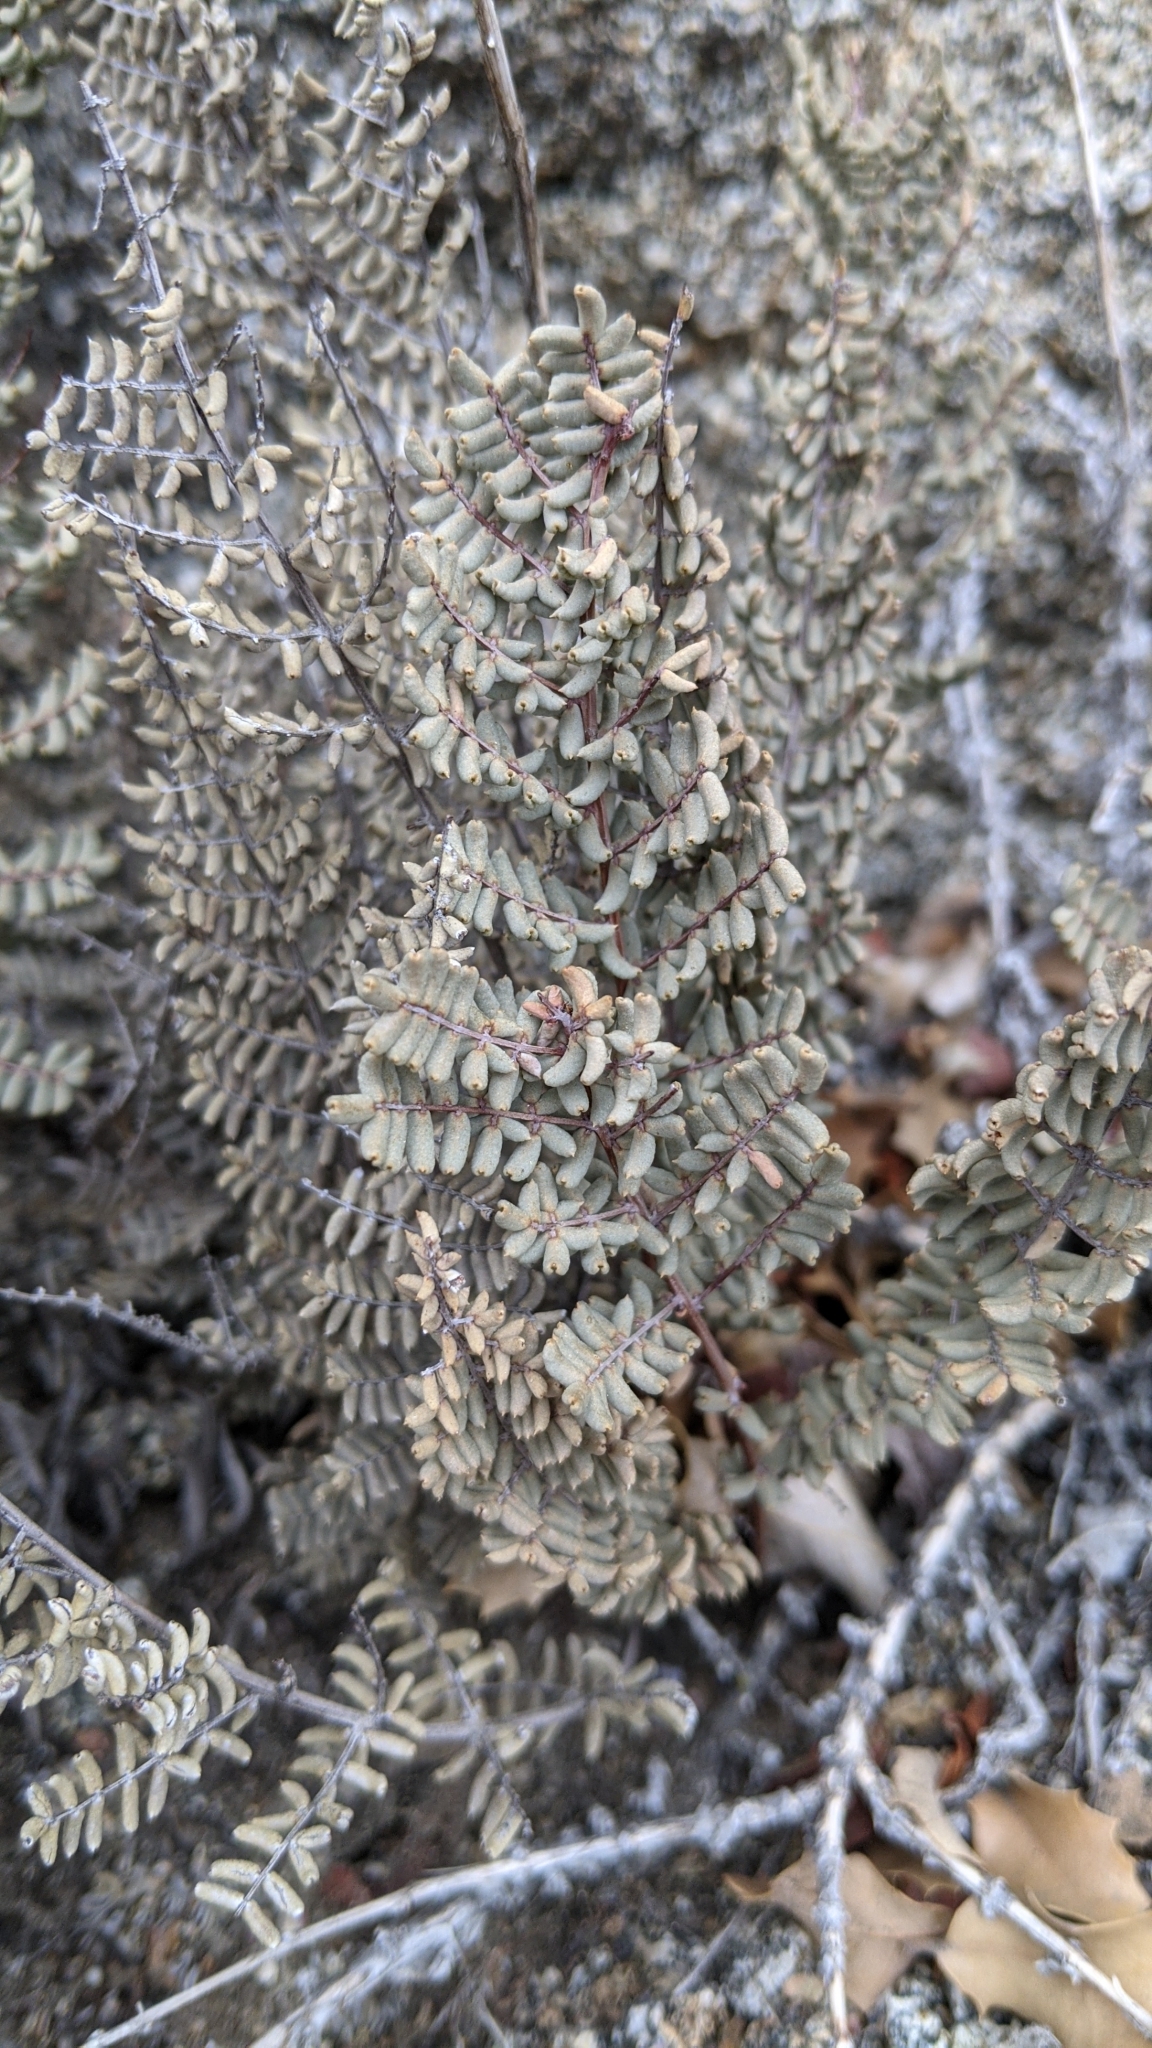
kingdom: Plantae
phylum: Tracheophyta
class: Polypodiopsida
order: Polypodiales
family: Pteridaceae
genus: Pellaea
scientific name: Pellaea mucronata
